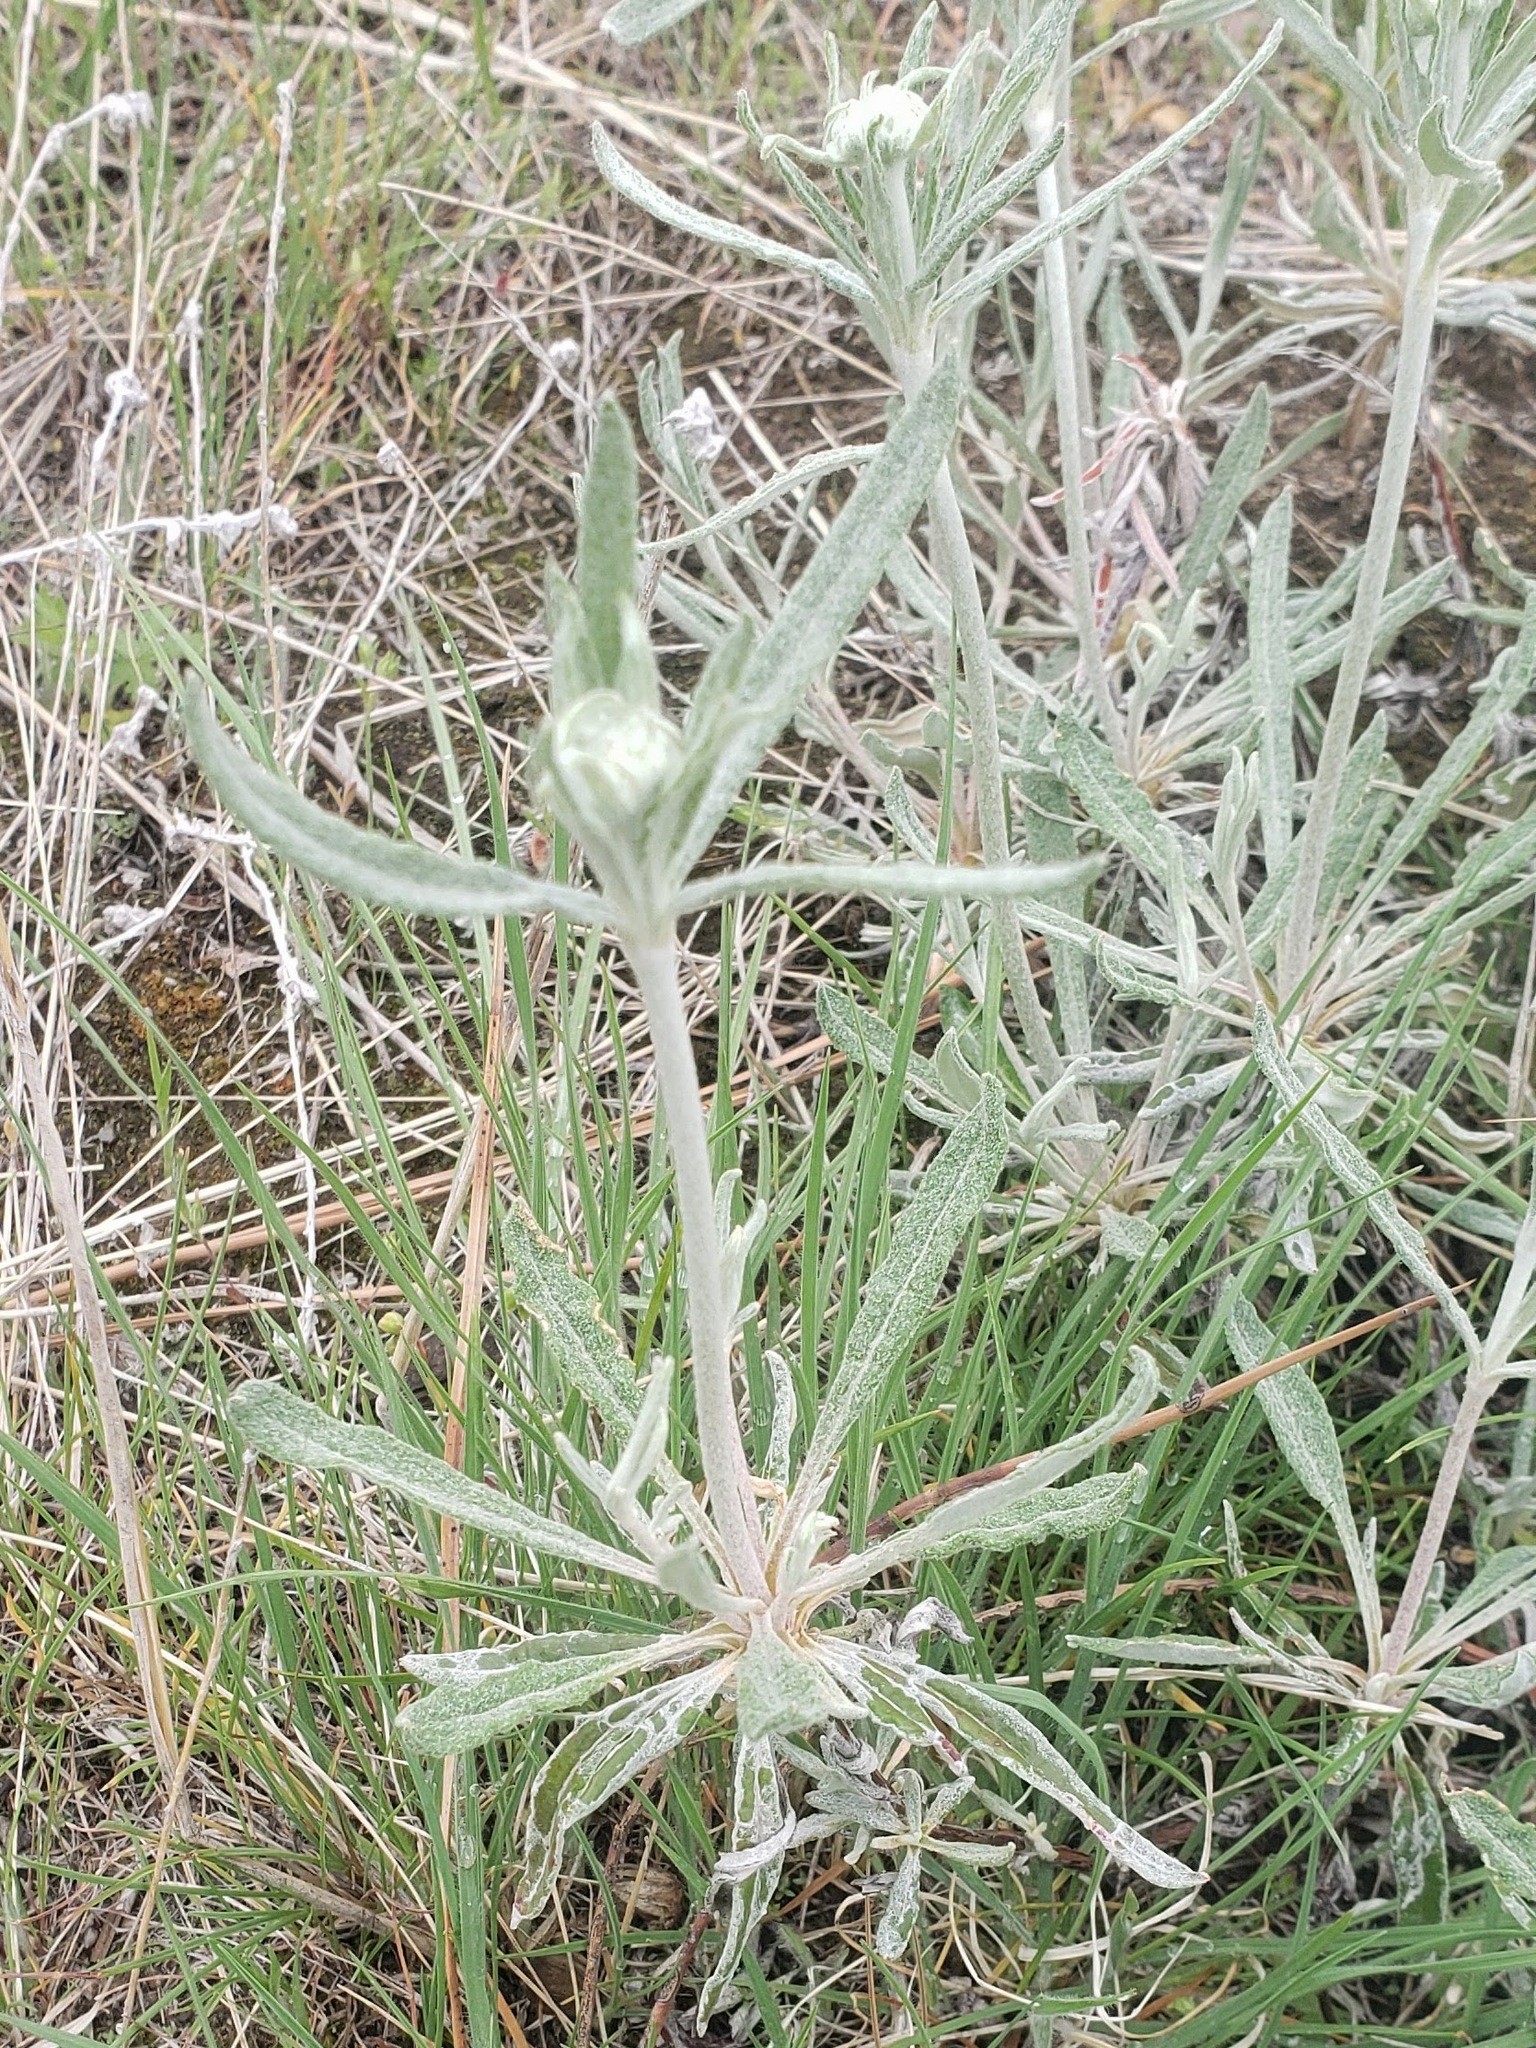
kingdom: Plantae
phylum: Tracheophyta
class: Magnoliopsida
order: Caryophyllales
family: Polygonaceae
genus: Eriogonum
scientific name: Eriogonum heracleoides
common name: Wyeth's buckwheat
